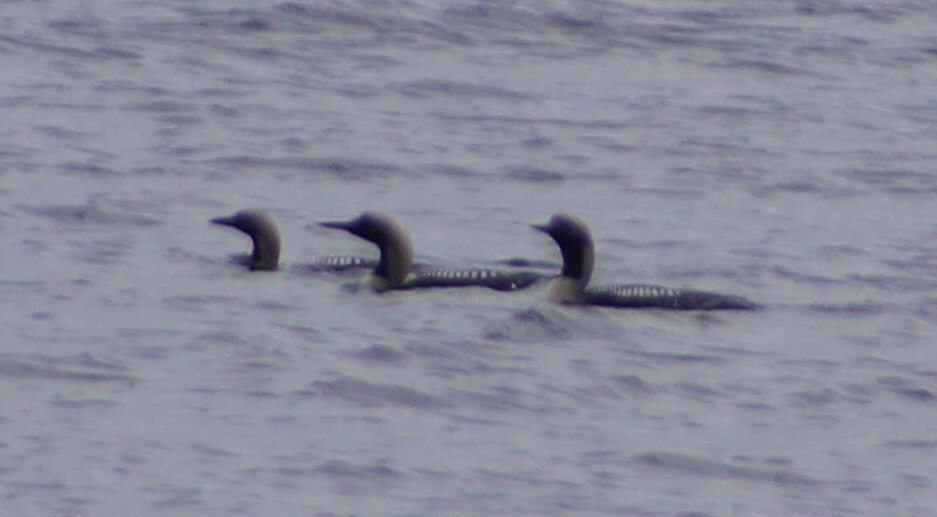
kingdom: Animalia
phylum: Chordata
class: Aves
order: Gaviiformes
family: Gaviidae
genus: Gavia
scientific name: Gavia arctica
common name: Black-throated loon
